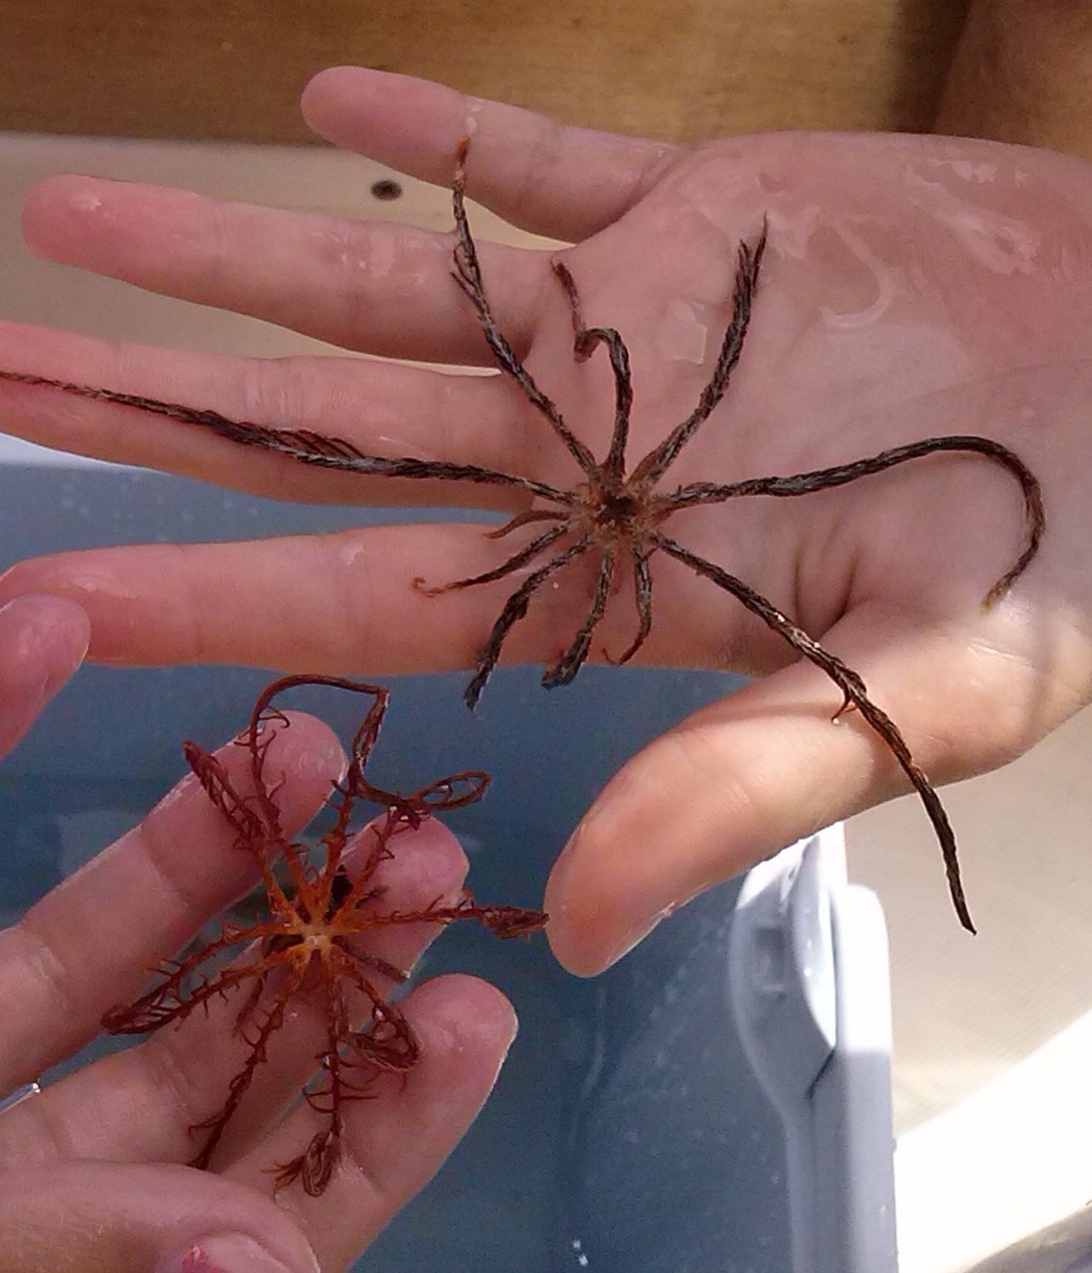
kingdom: Animalia
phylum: Echinodermata
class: Crinoidea
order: Comatulida
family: Antedonidae
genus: Antedon
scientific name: Antedon mediterranea
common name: Feather star
